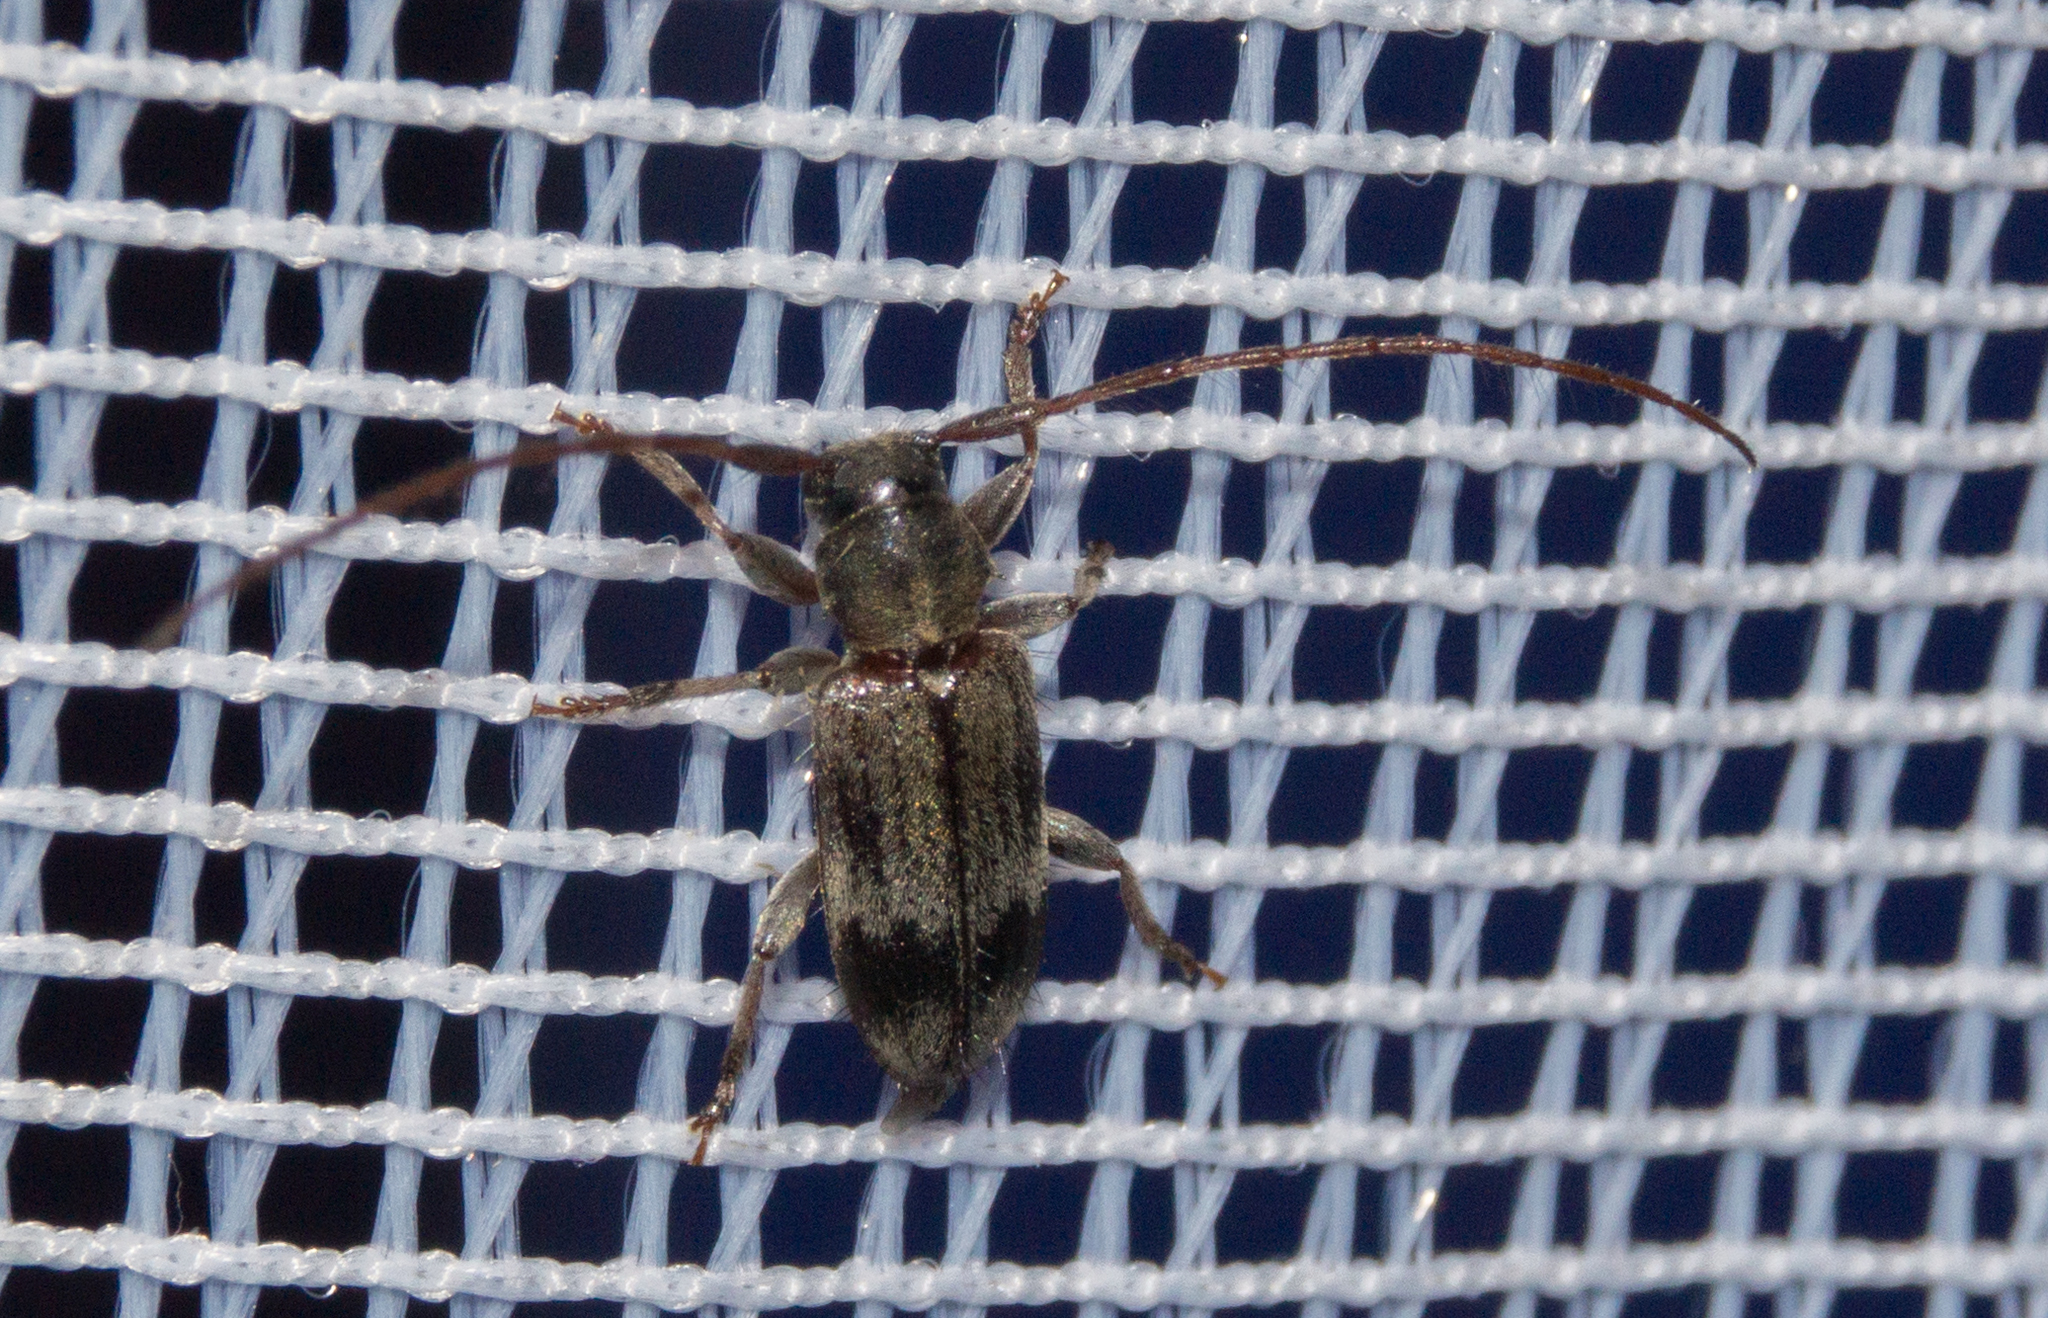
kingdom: Animalia
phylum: Arthropoda
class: Insecta
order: Coleoptera
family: Cerambycidae
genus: Exocentrus
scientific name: Exocentrus lusitanus
